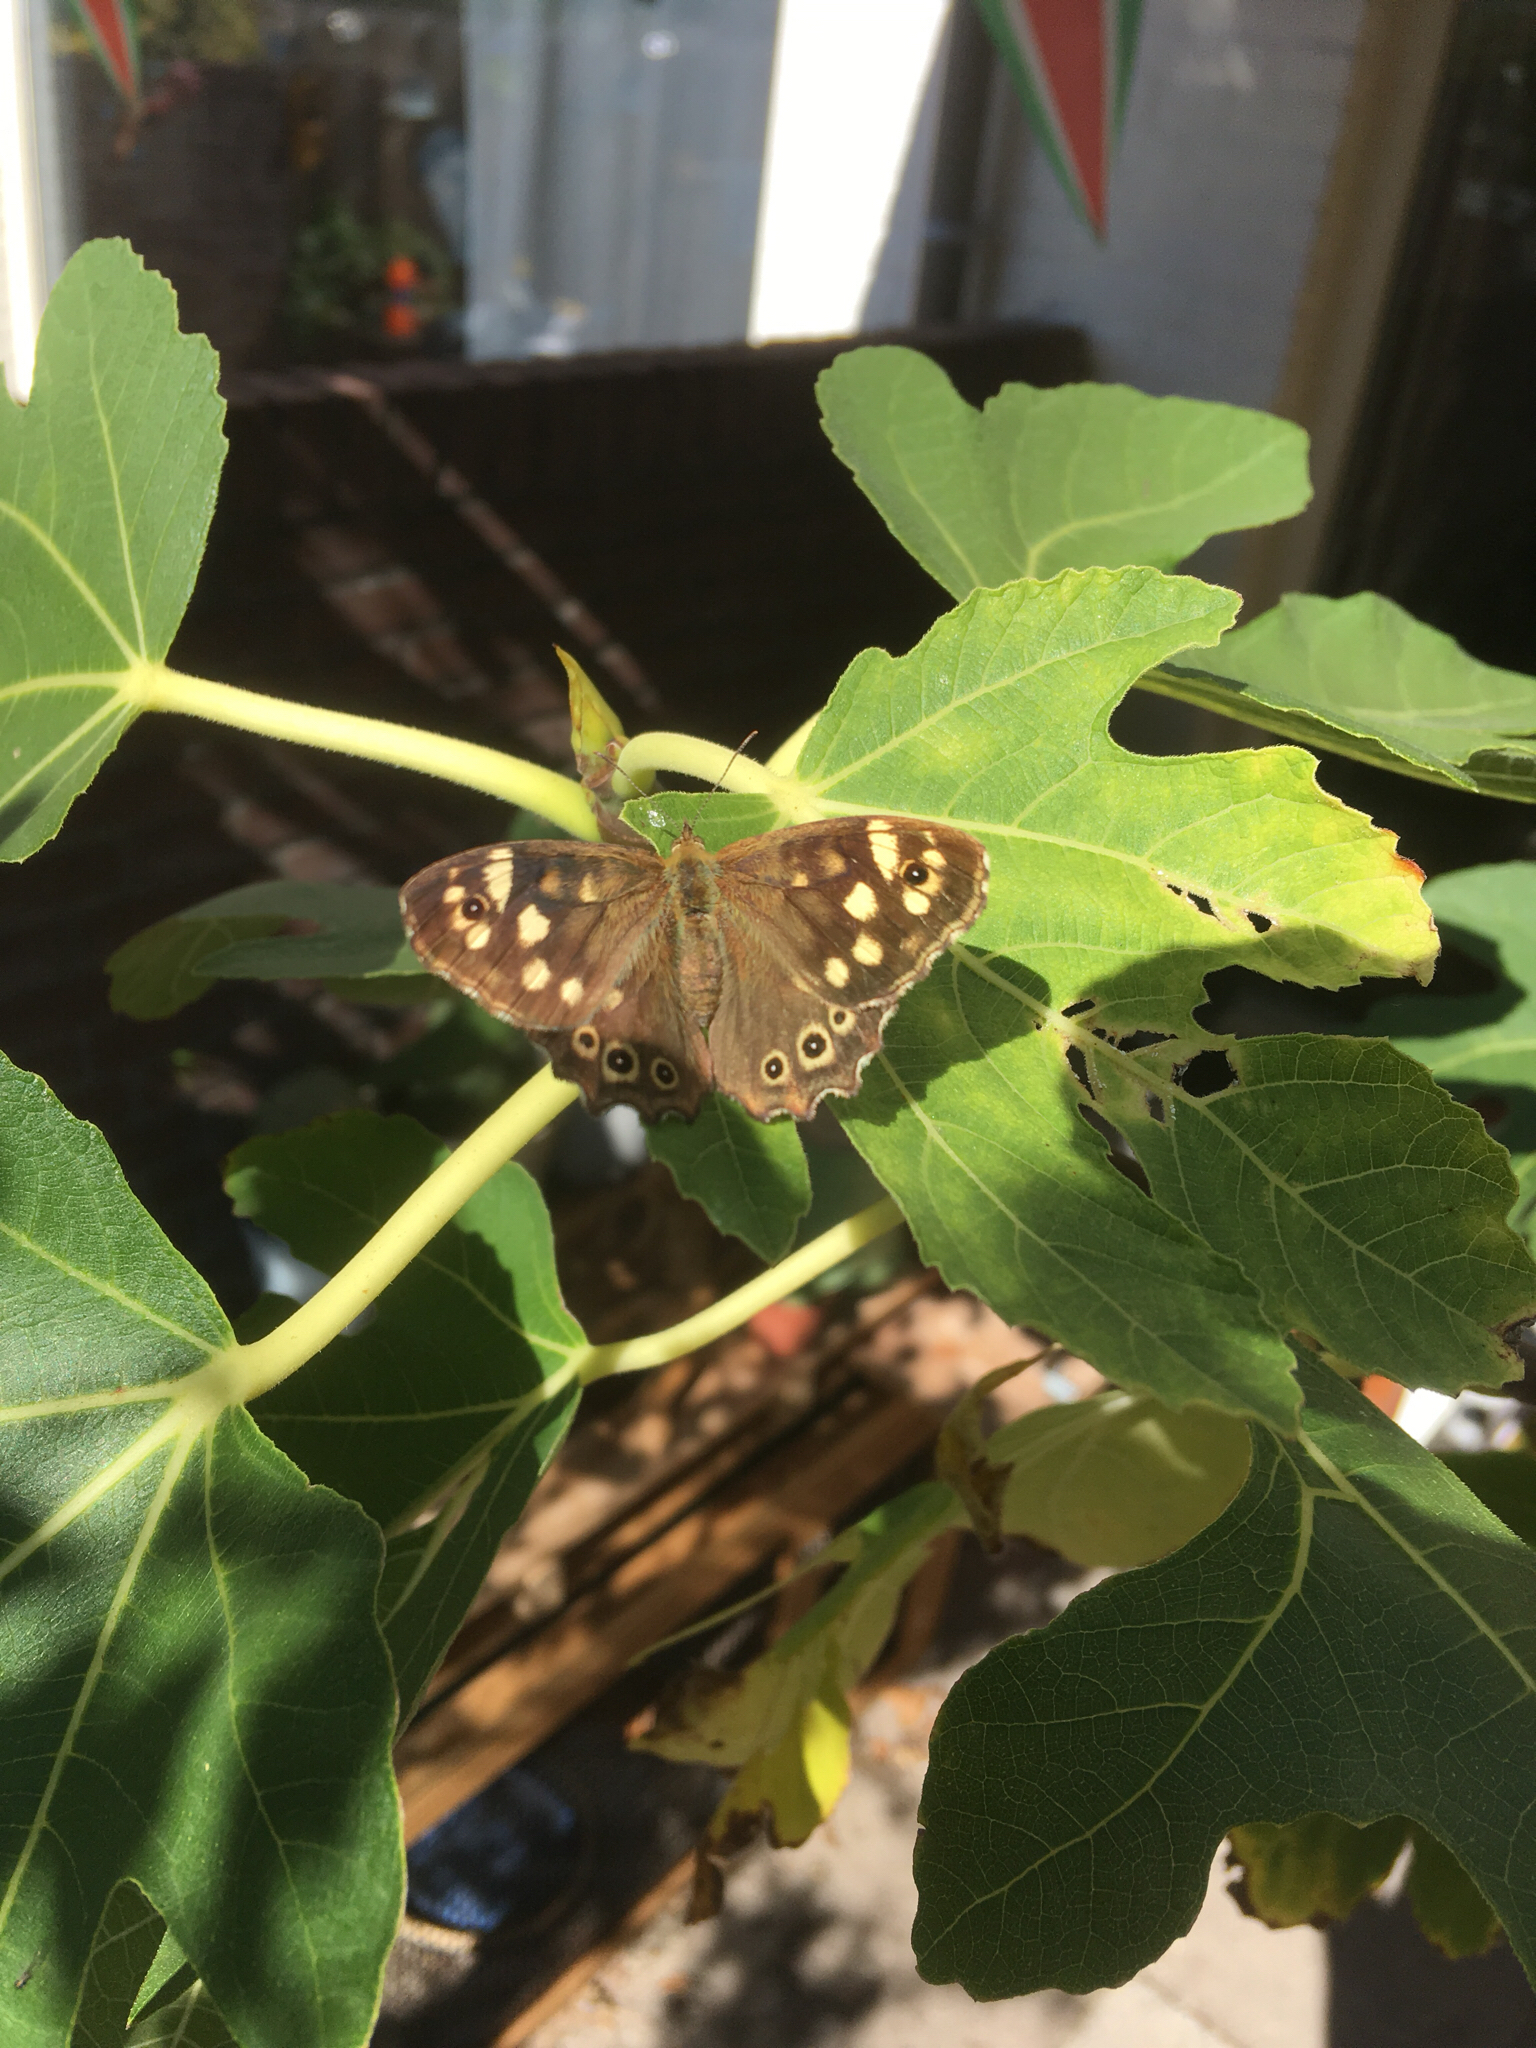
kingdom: Animalia
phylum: Arthropoda
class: Insecta
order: Lepidoptera
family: Nymphalidae
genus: Pararge
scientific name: Pararge aegeria
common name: Speckled wood
